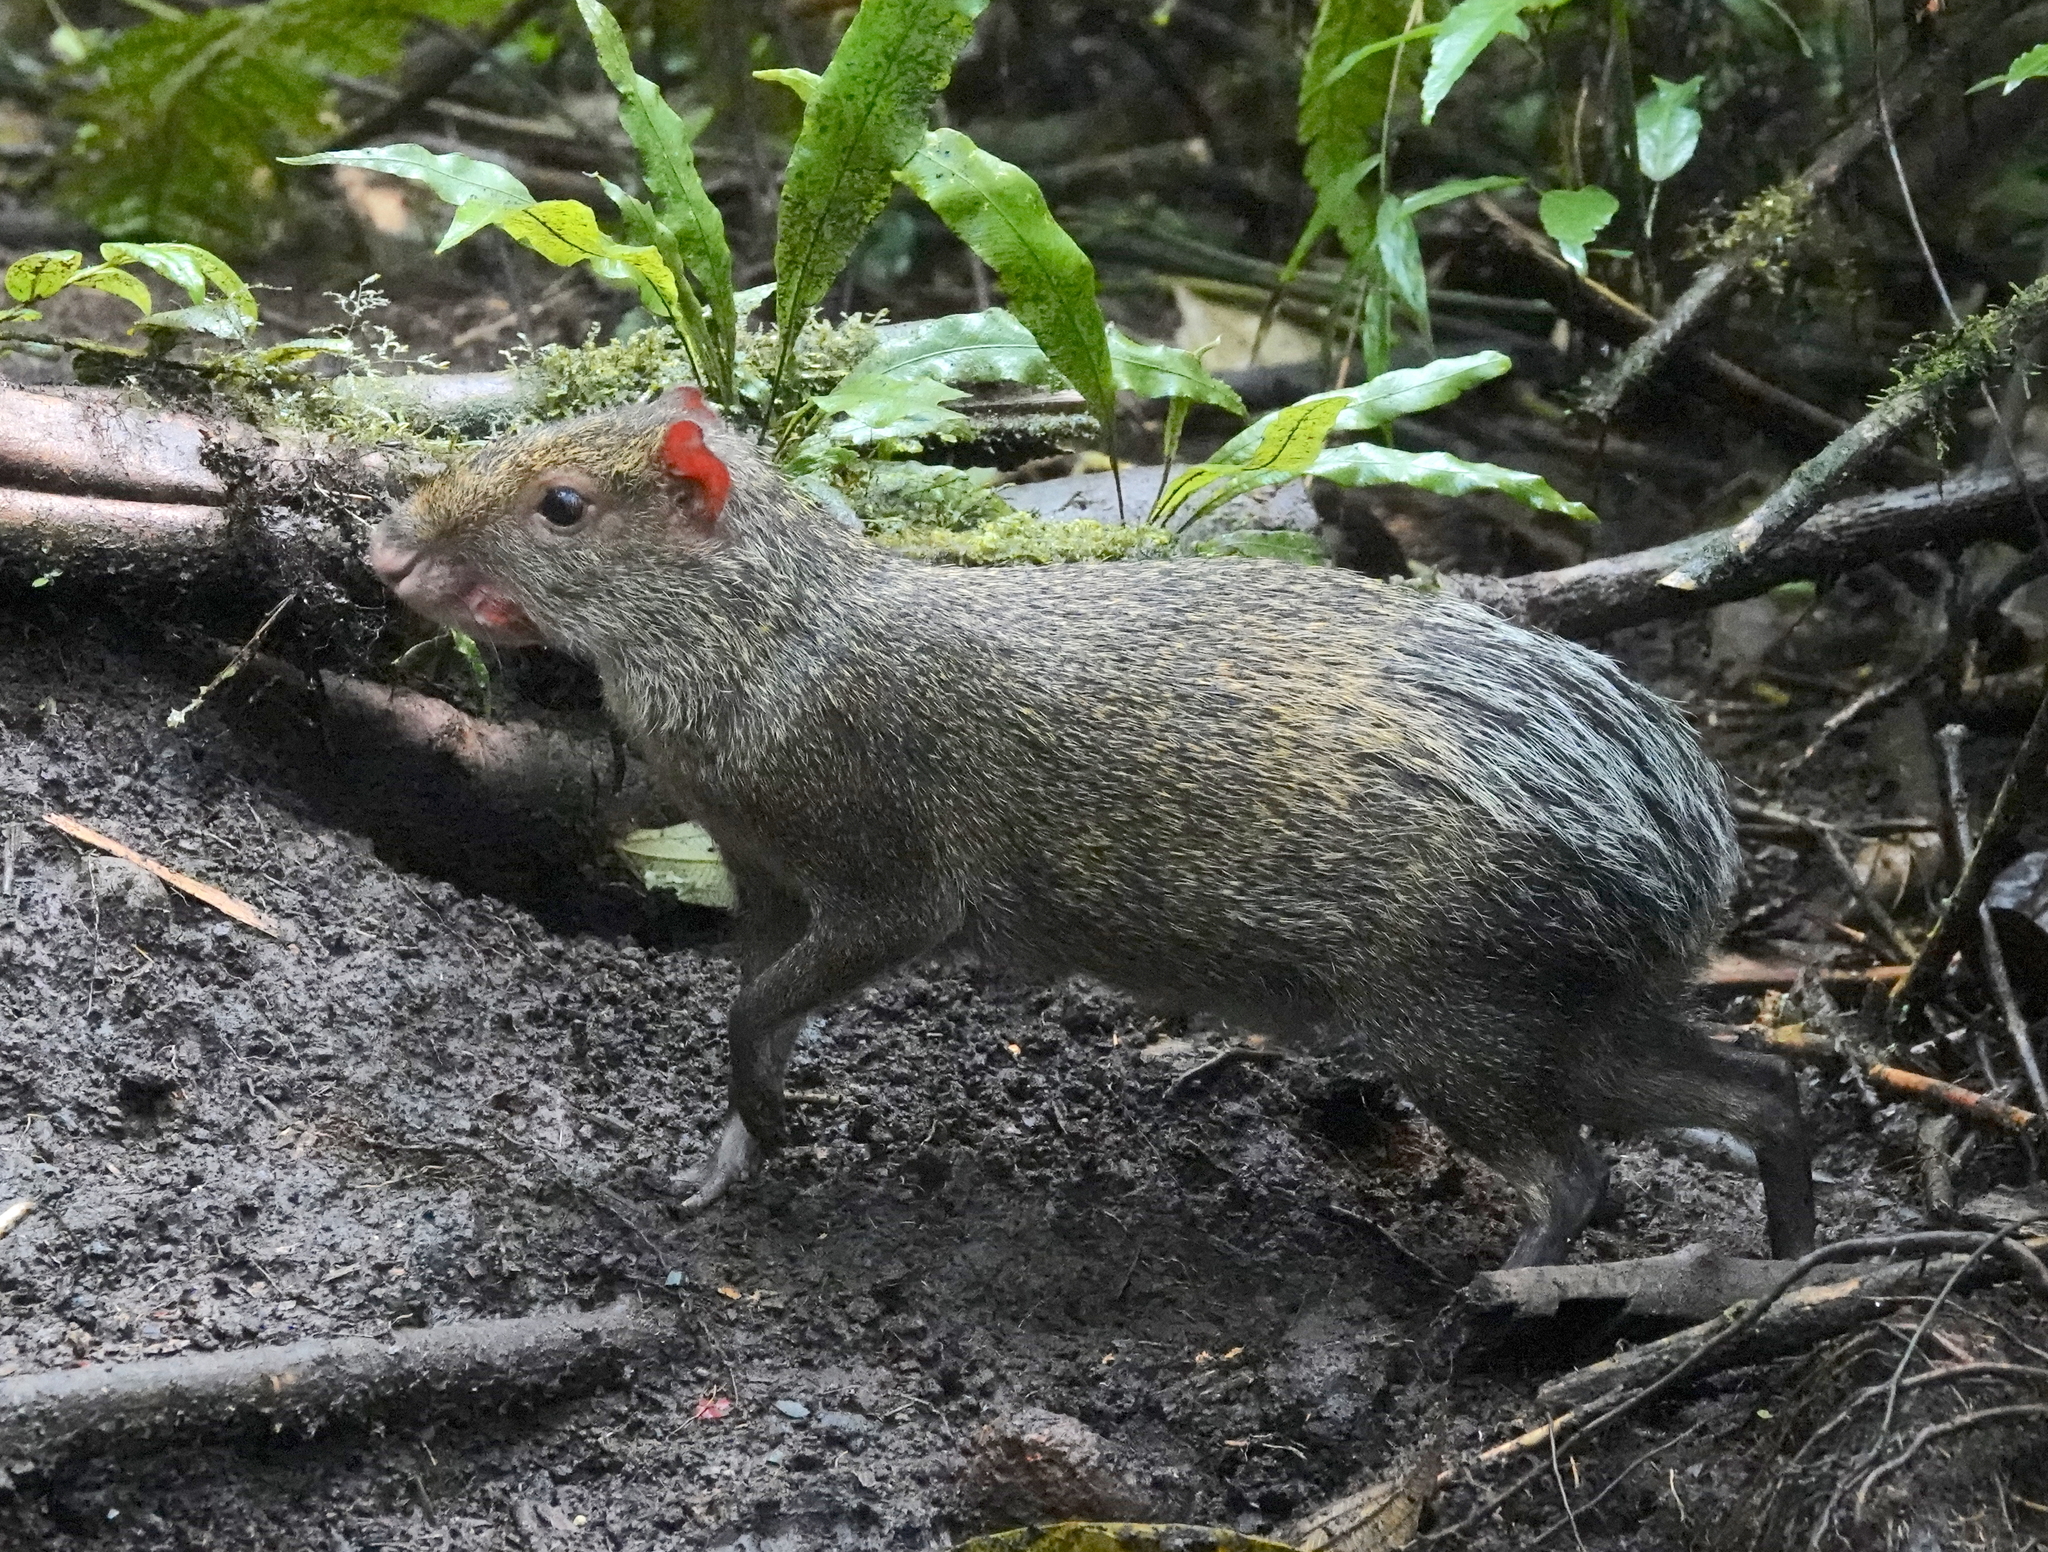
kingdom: Animalia
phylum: Chordata
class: Mammalia
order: Rodentia
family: Dasyproctidae
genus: Dasyprocta
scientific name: Dasyprocta punctata
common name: Central american agouti
